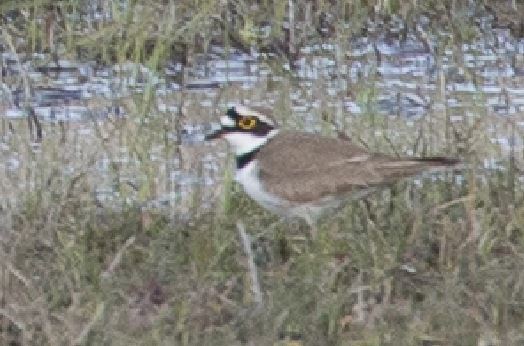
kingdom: Animalia
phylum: Chordata
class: Aves
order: Charadriiformes
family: Charadriidae
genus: Charadrius
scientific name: Charadrius dubius
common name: Little ringed plover
